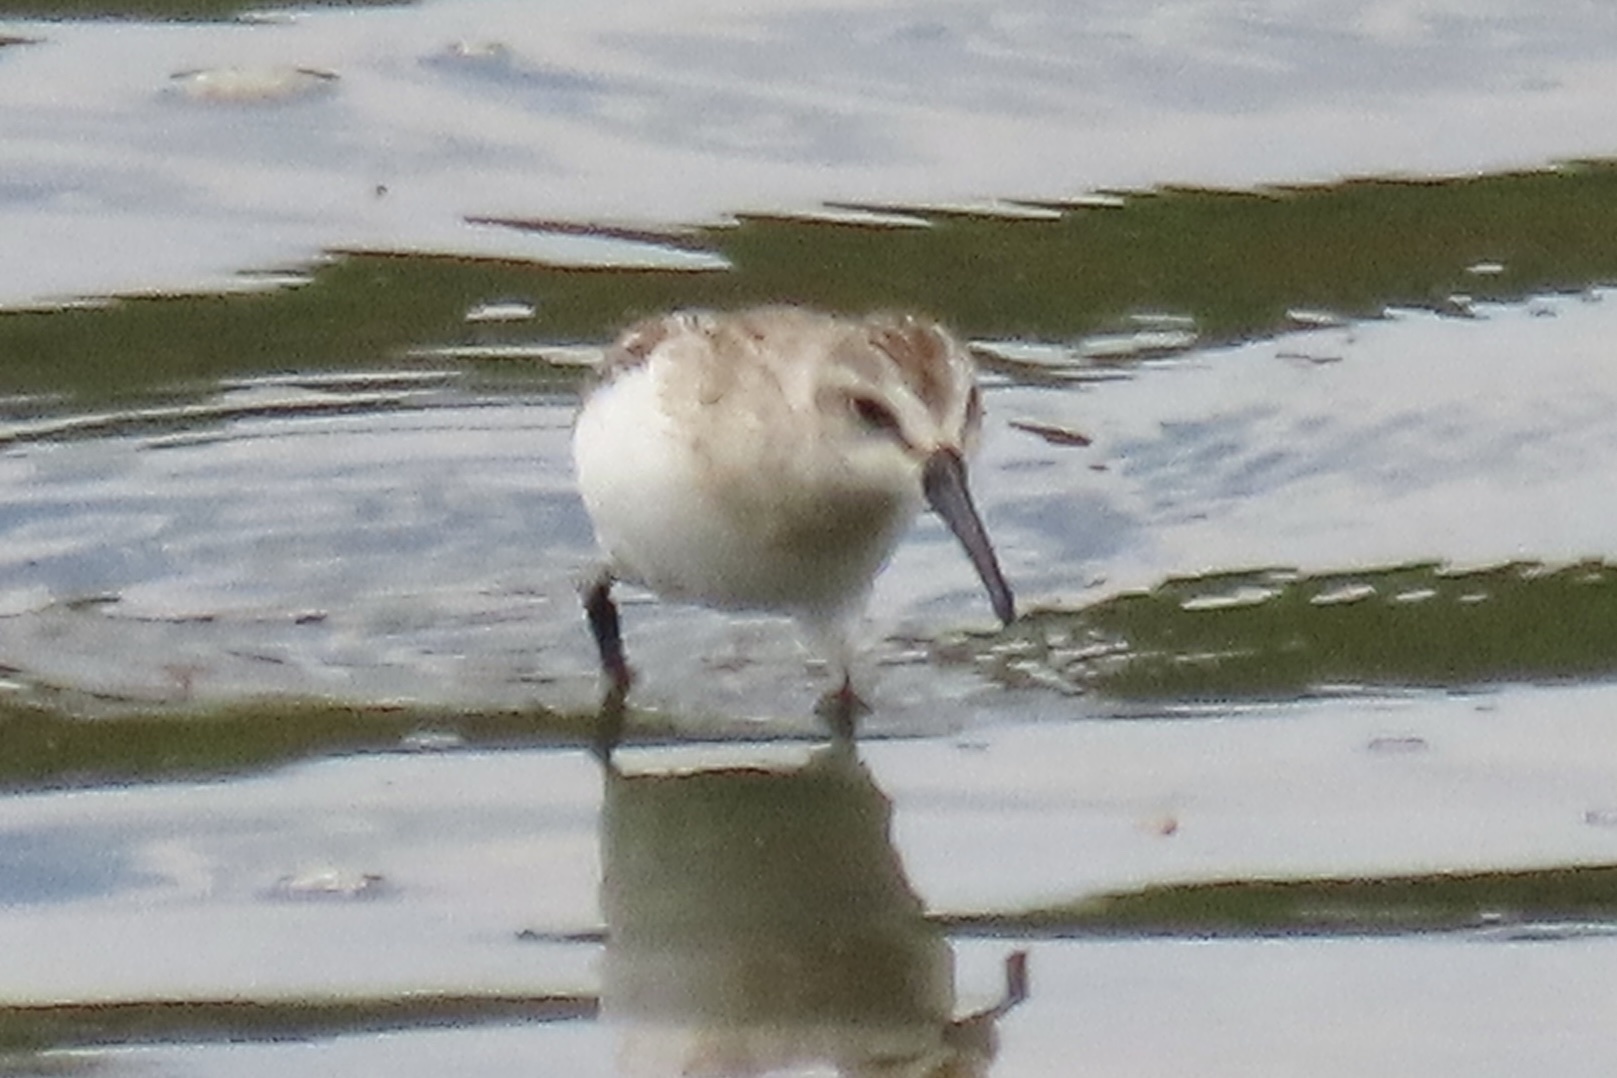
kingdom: Animalia
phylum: Chordata
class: Aves
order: Charadriiformes
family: Scolopacidae
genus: Calidris
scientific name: Calidris mauri
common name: Western sandpiper
